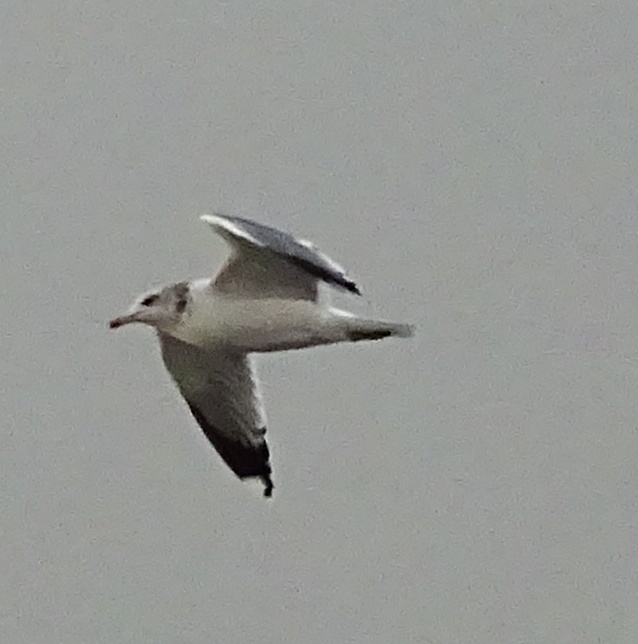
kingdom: Animalia
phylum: Chordata
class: Aves
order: Charadriiformes
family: Laridae
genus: Larus
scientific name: Larus californicus
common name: California gull
